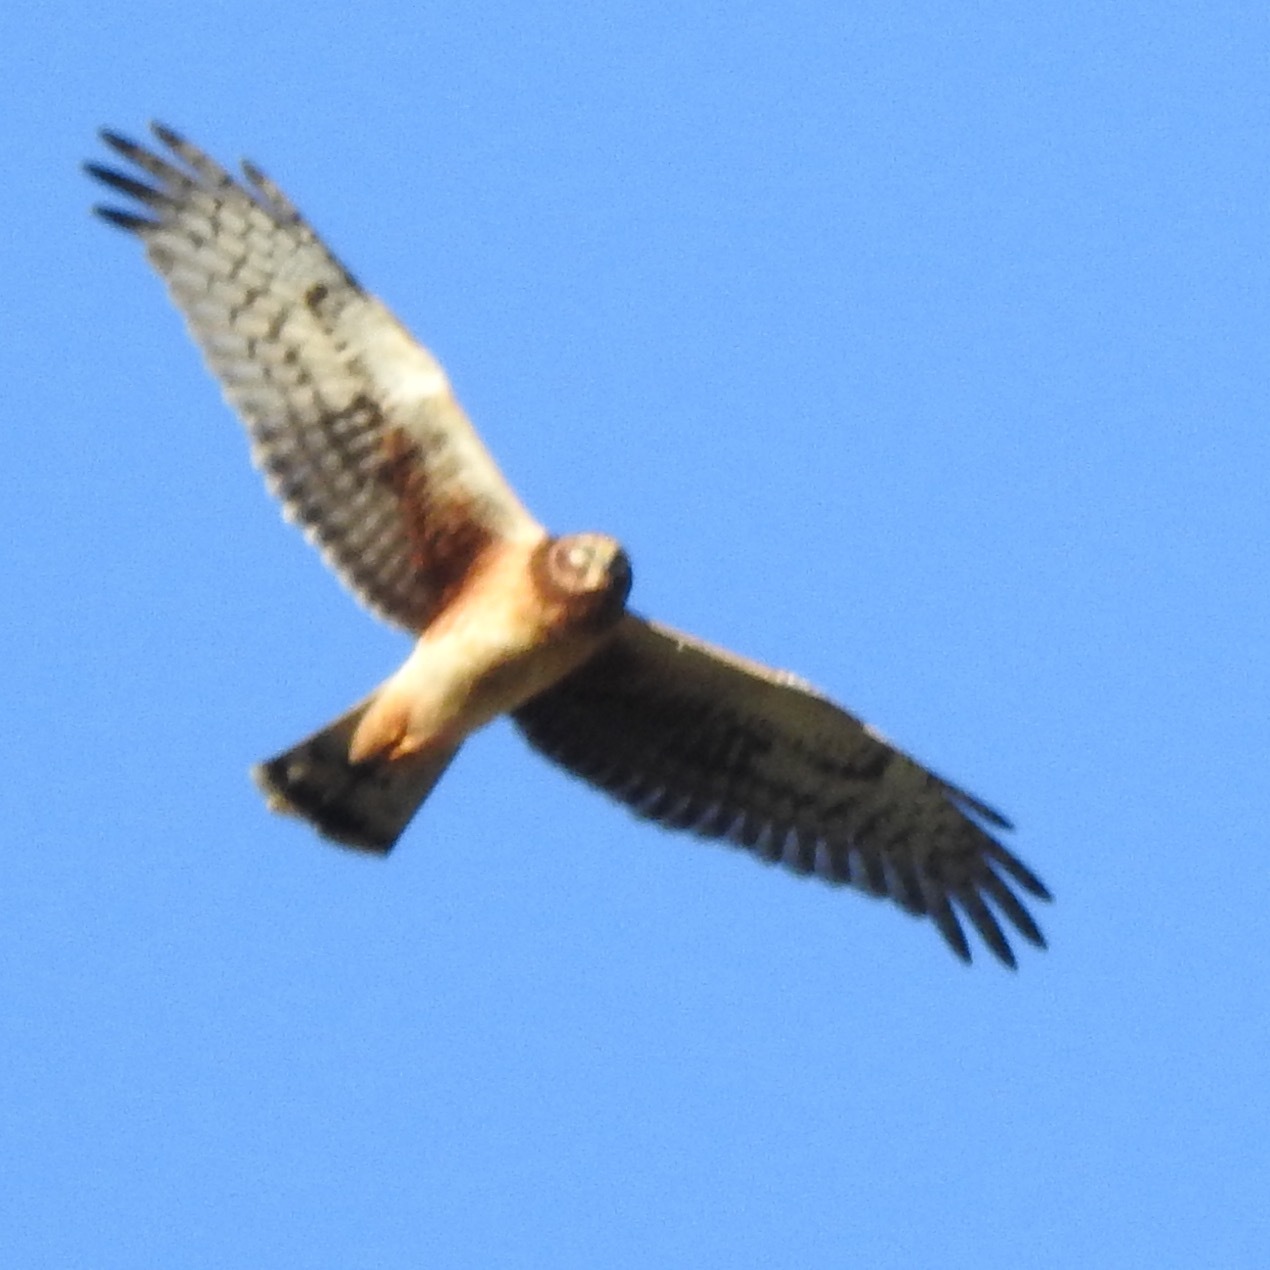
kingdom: Animalia
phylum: Chordata
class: Aves
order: Accipitriformes
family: Accipitridae
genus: Circus
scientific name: Circus cyaneus
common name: Hen harrier
